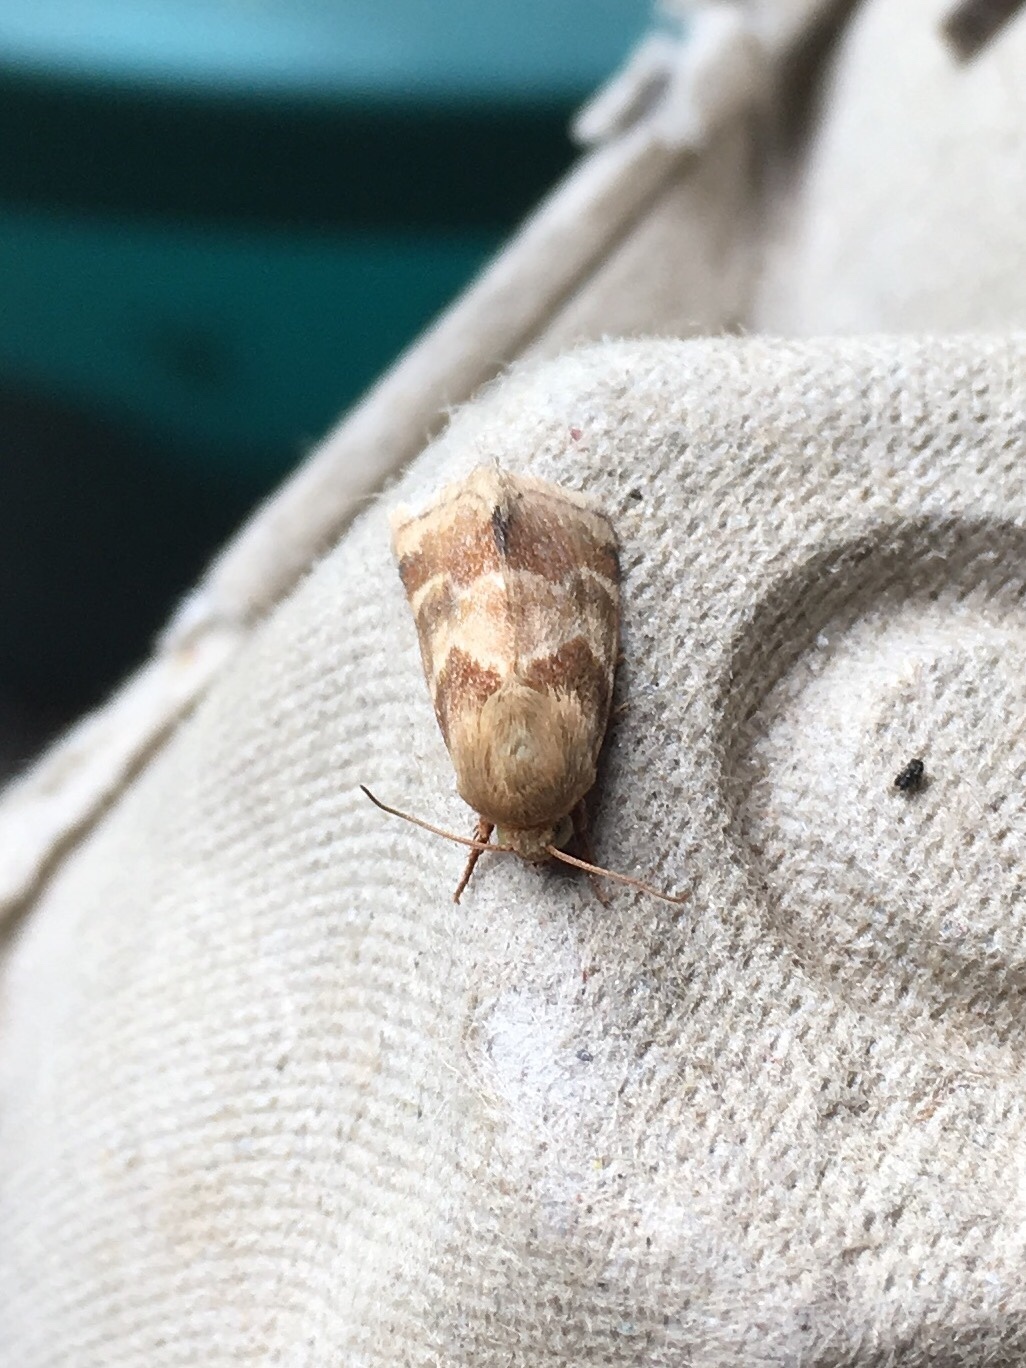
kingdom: Animalia
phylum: Arthropoda
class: Insecta
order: Lepidoptera
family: Noctuidae
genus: Schinia
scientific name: Schinia lynx
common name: Lynx flower moth
